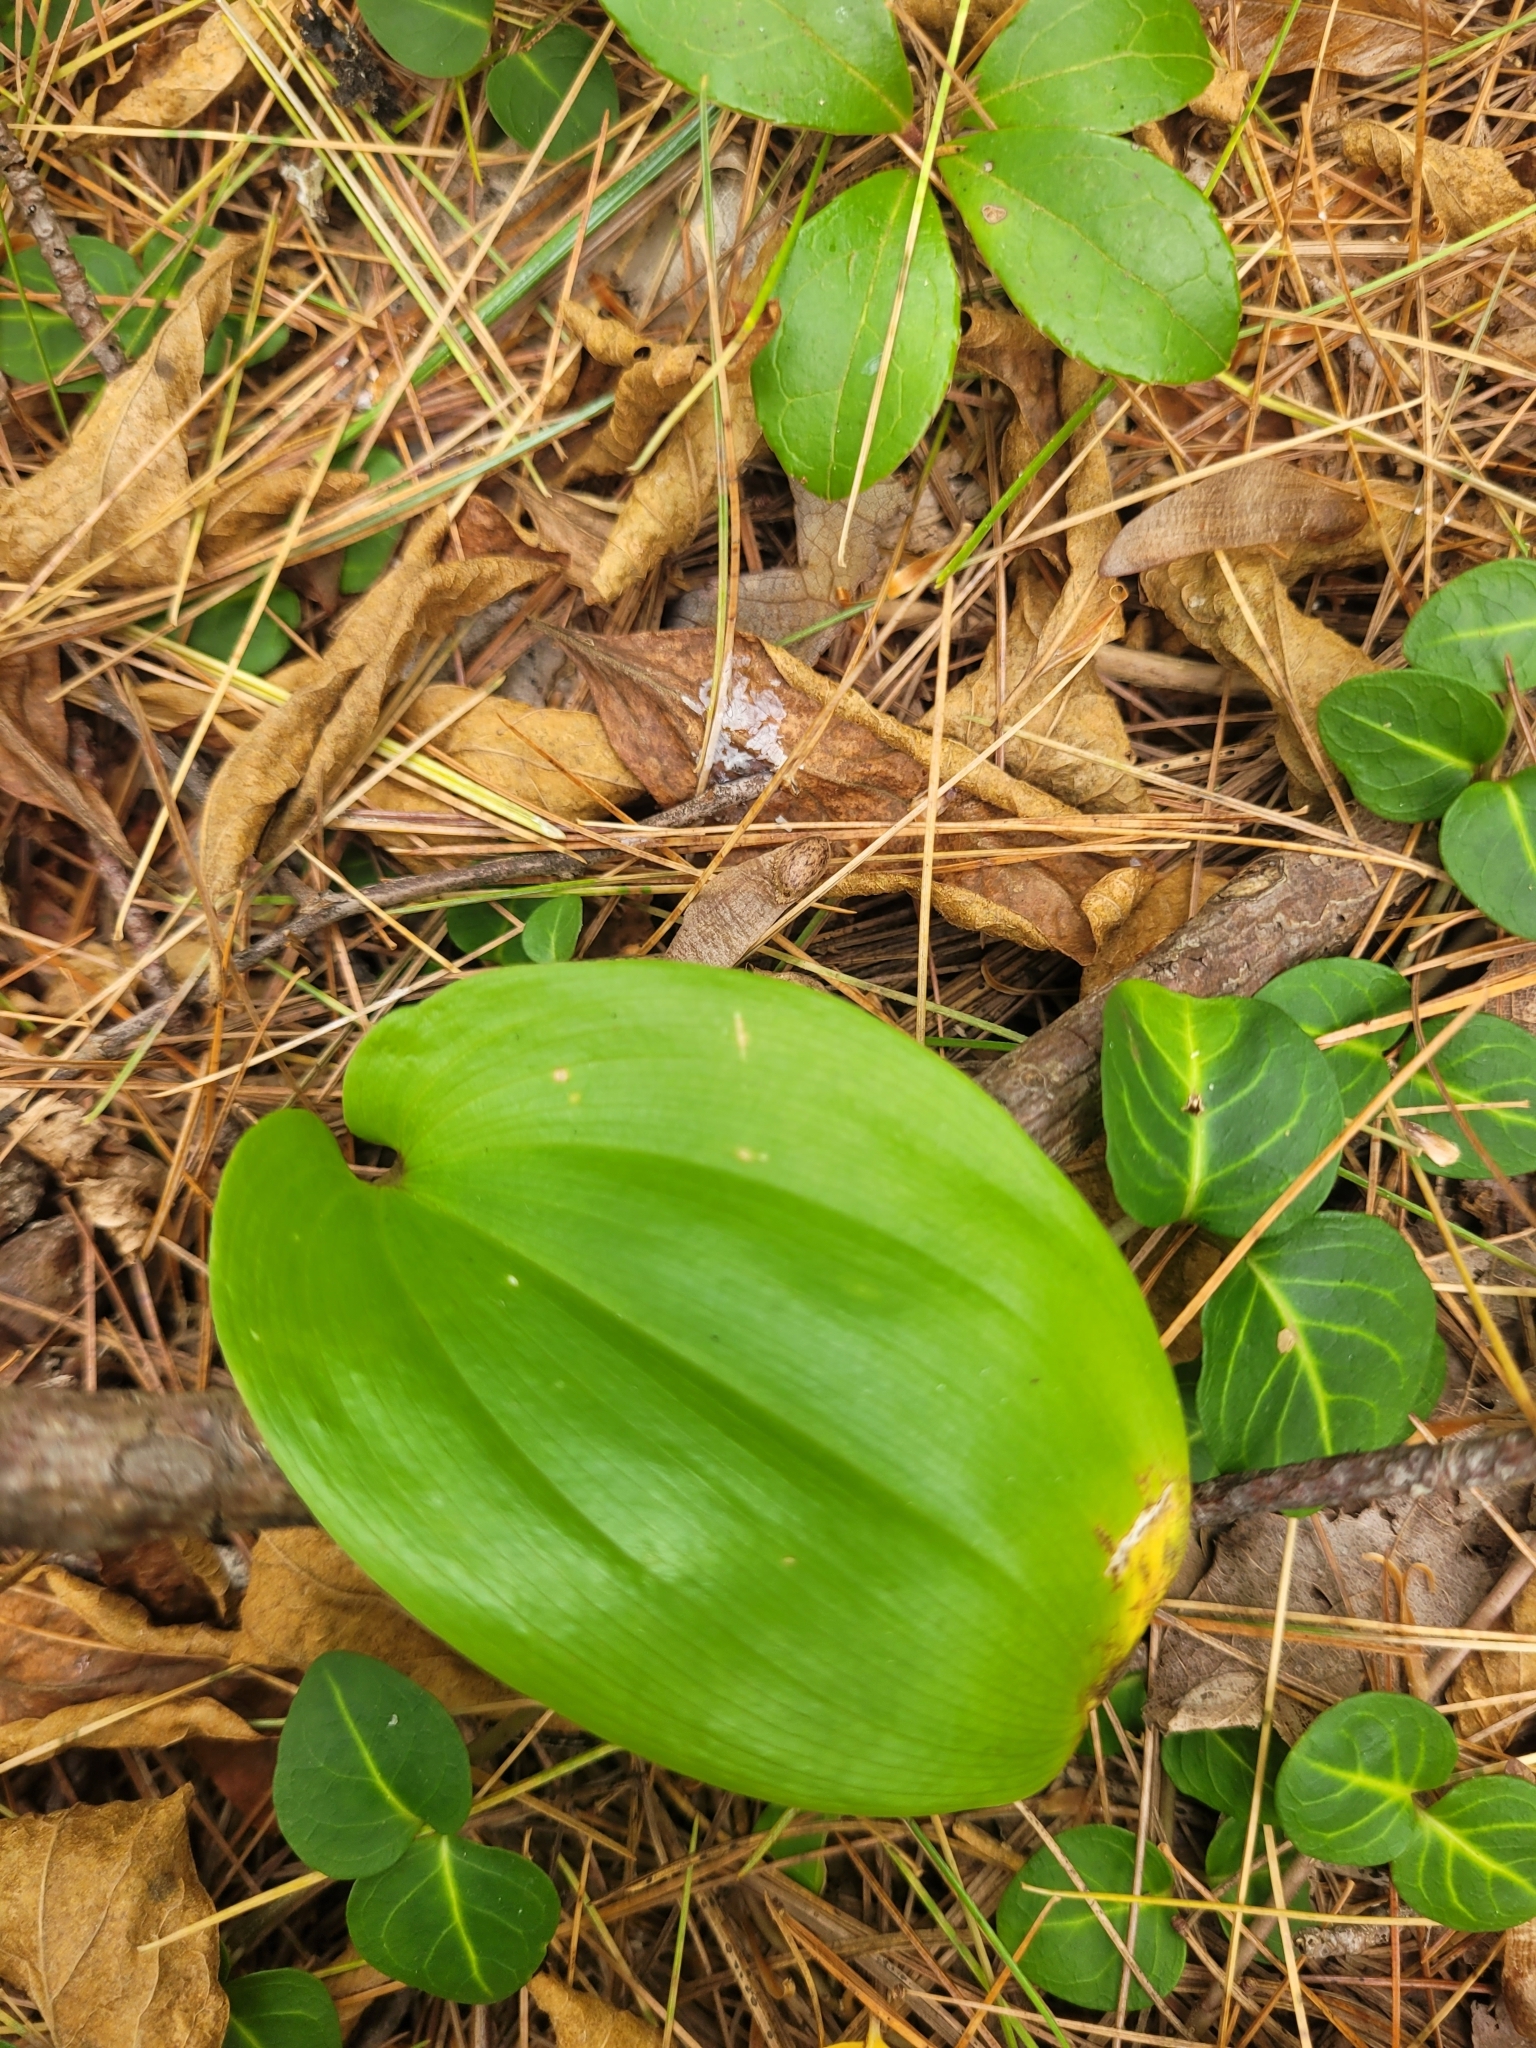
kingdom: Plantae
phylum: Tracheophyta
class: Liliopsida
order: Asparagales
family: Asparagaceae
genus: Maianthemum
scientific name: Maianthemum canadense
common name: False lily-of-the-valley
